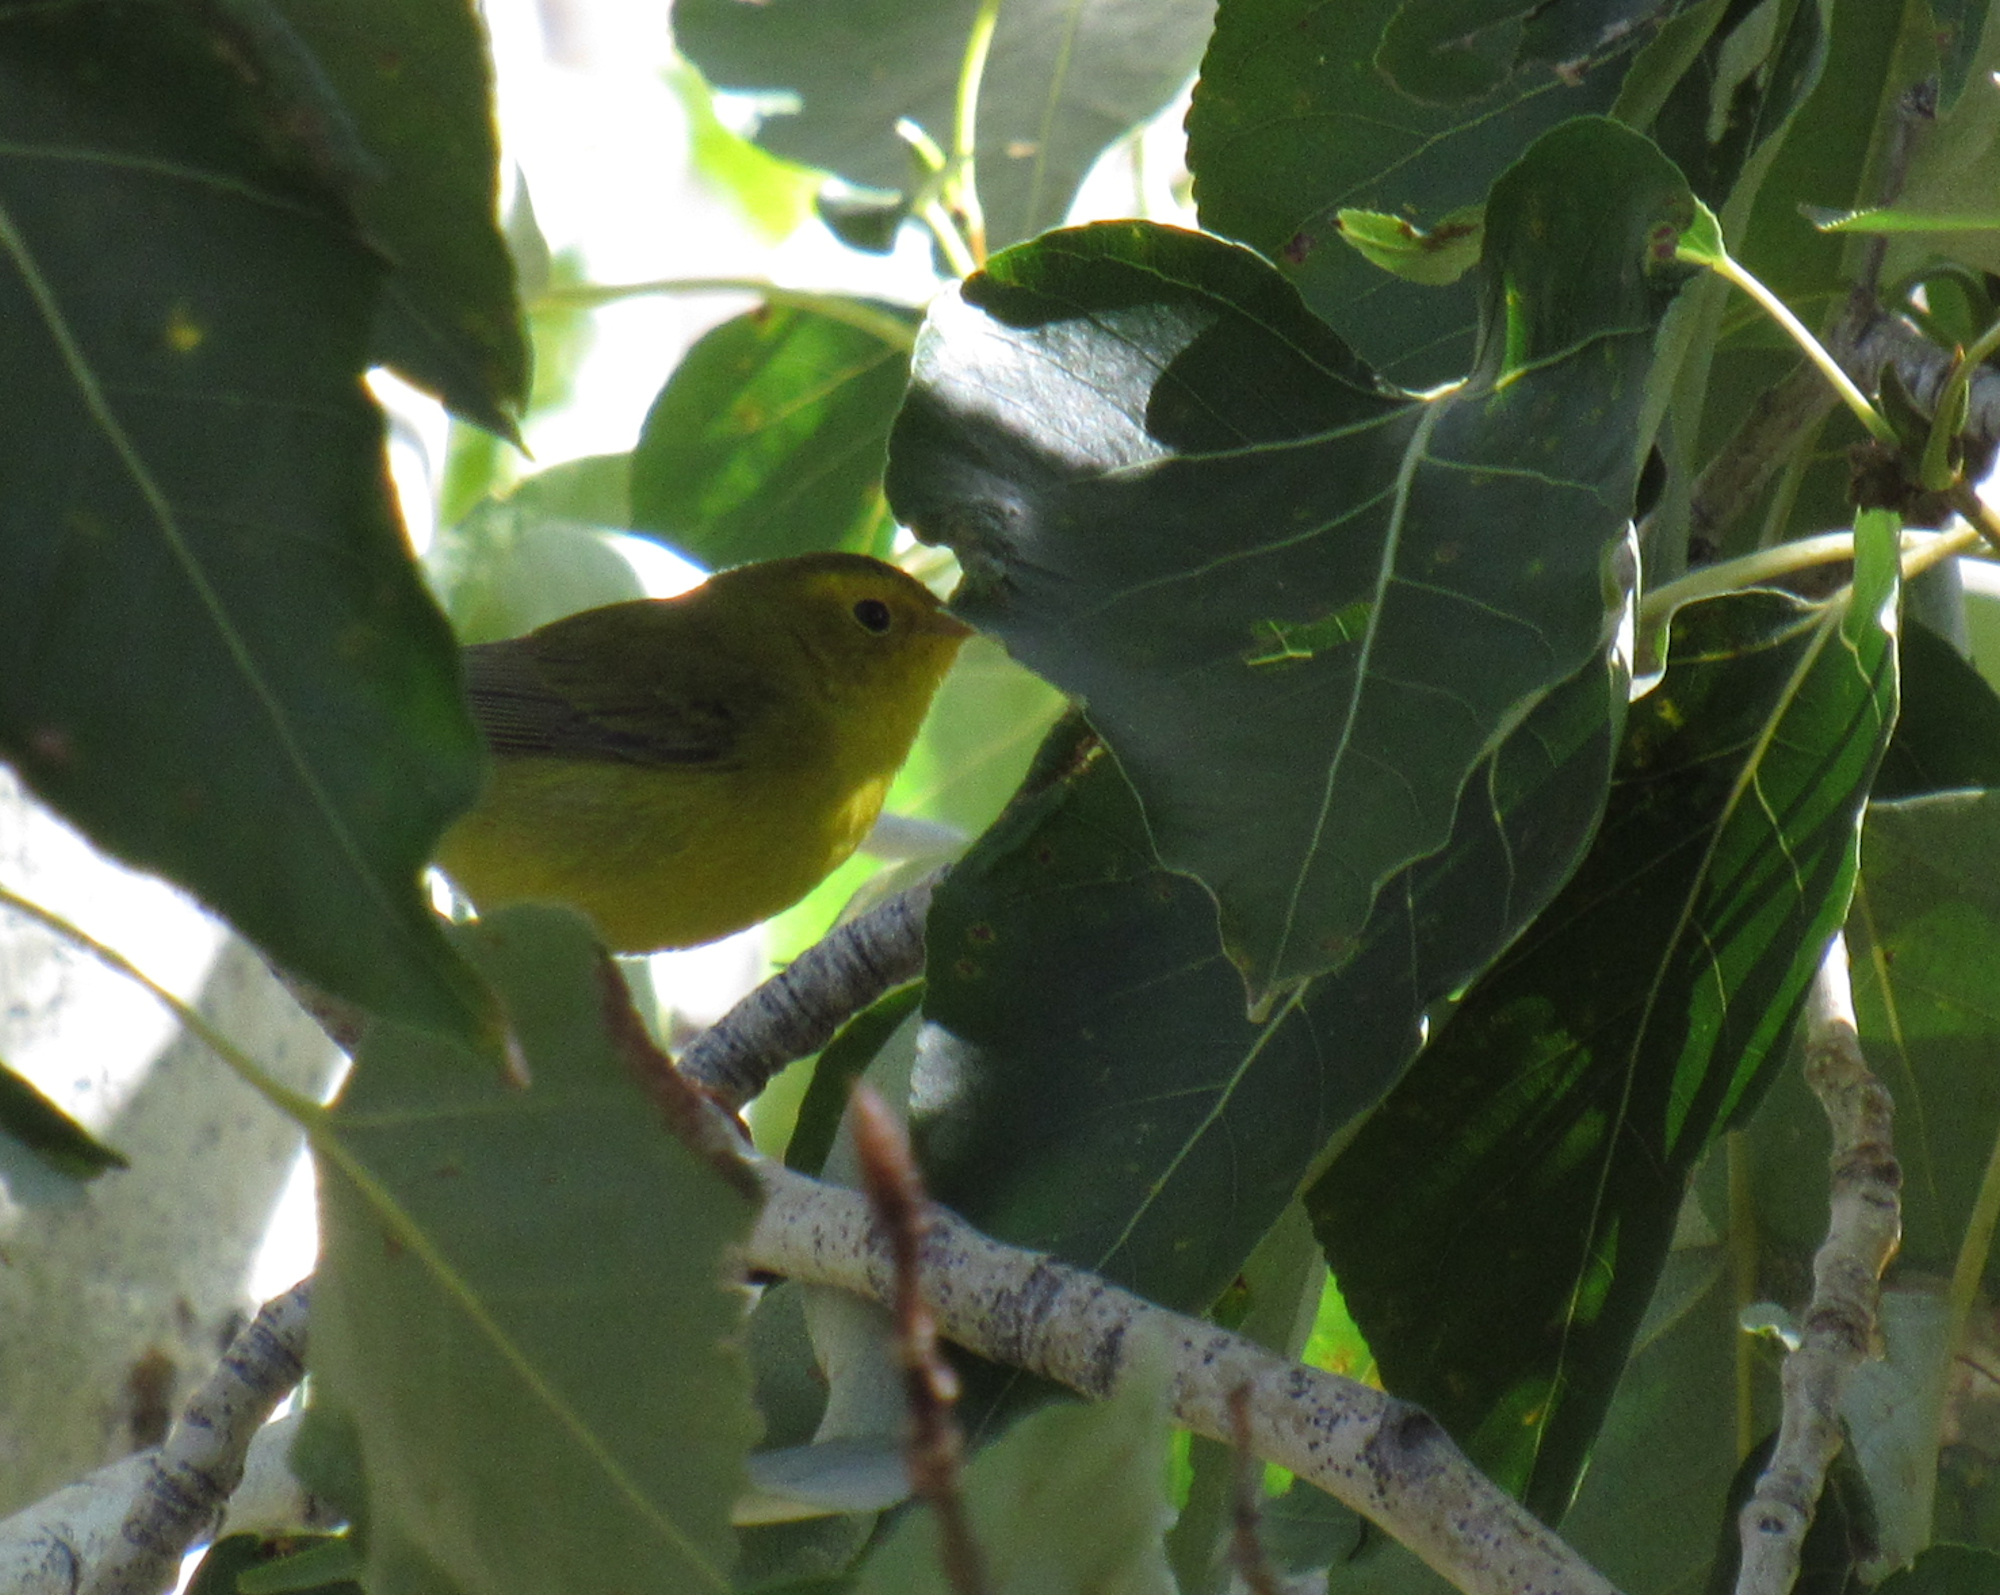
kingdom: Animalia
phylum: Chordata
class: Aves
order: Passeriformes
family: Parulidae
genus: Cardellina
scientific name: Cardellina pusilla
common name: Wilson's warbler
